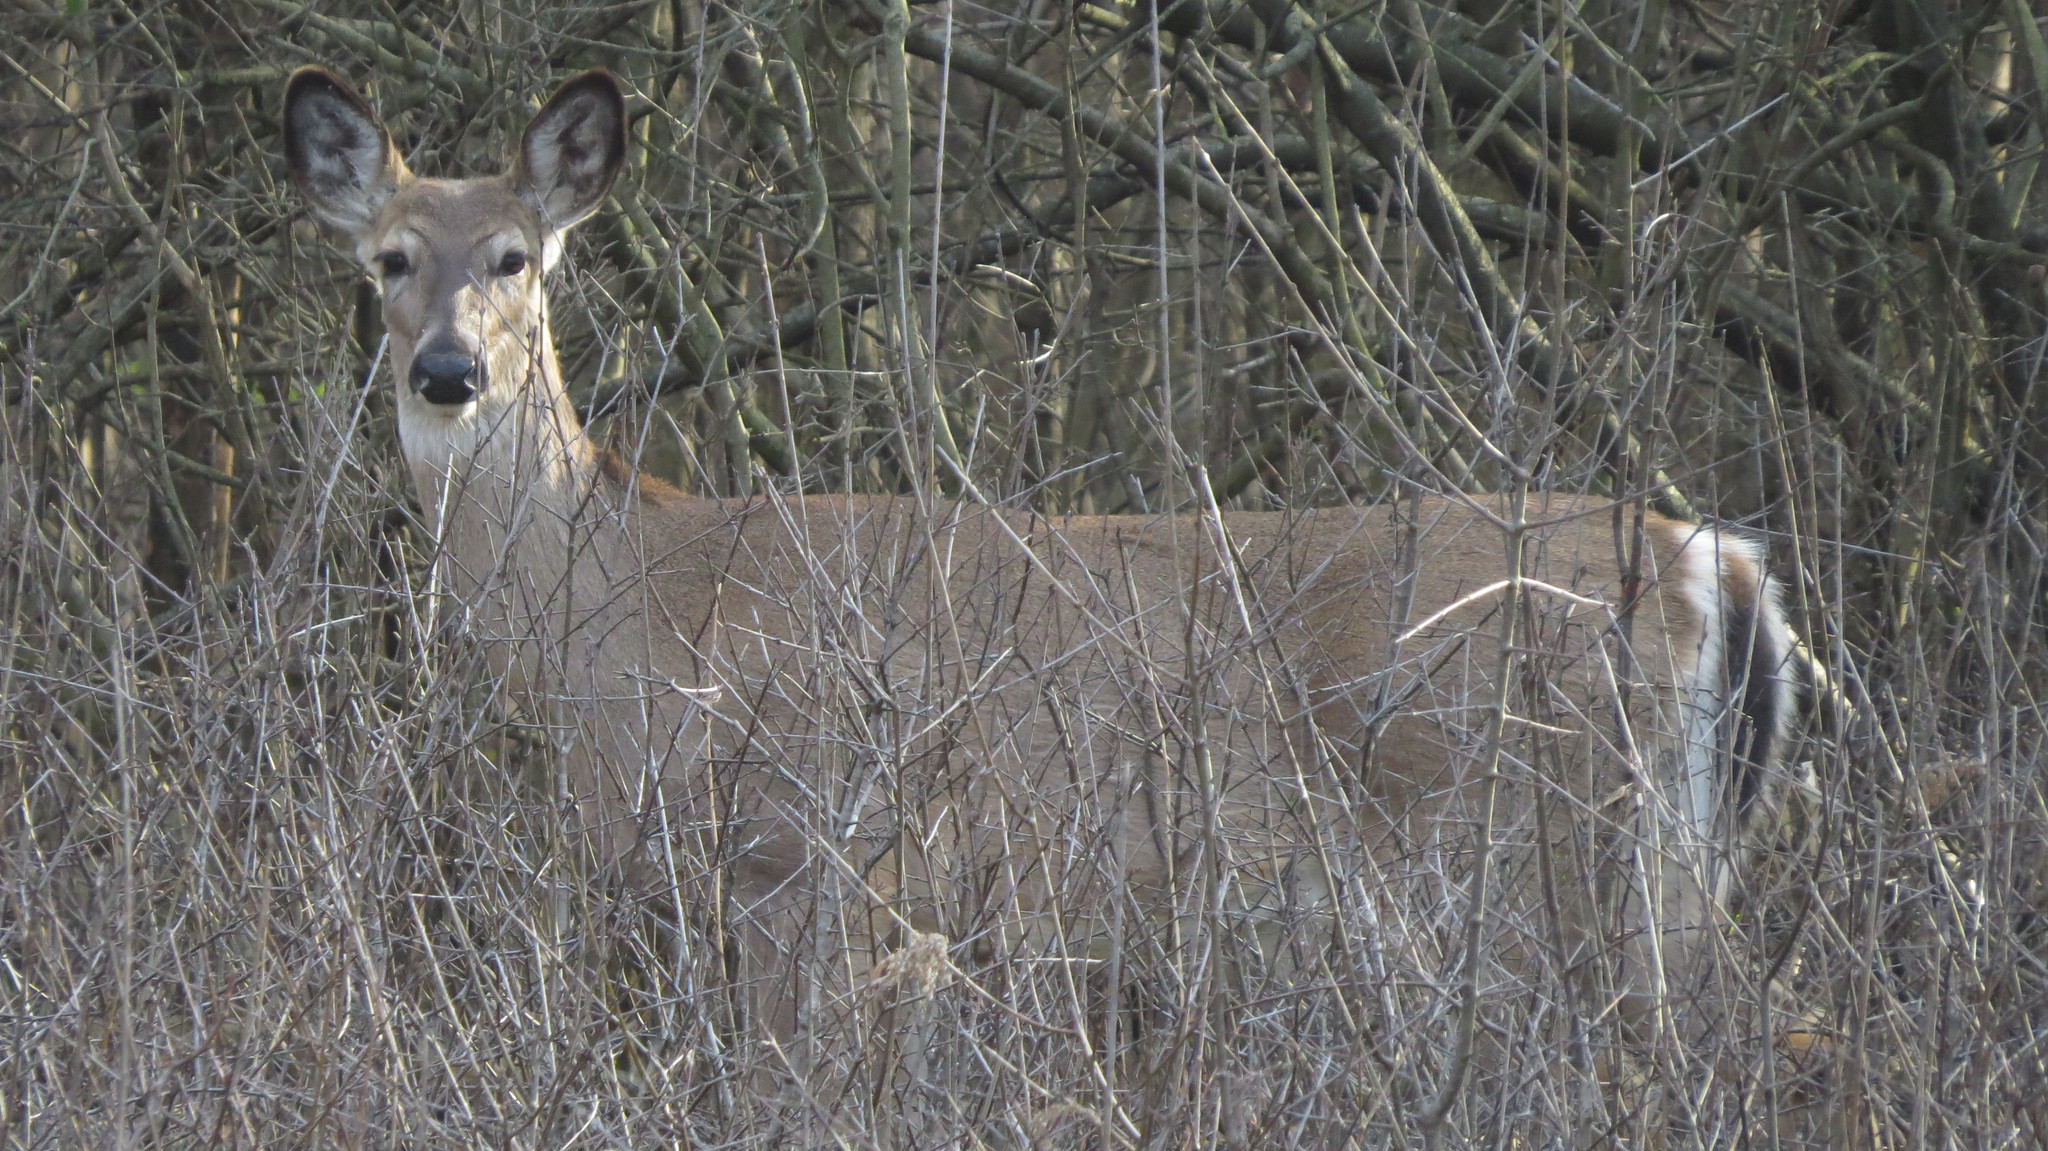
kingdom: Animalia
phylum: Chordata
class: Mammalia
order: Artiodactyla
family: Cervidae
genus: Odocoileus
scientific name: Odocoileus virginianus
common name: White-tailed deer
